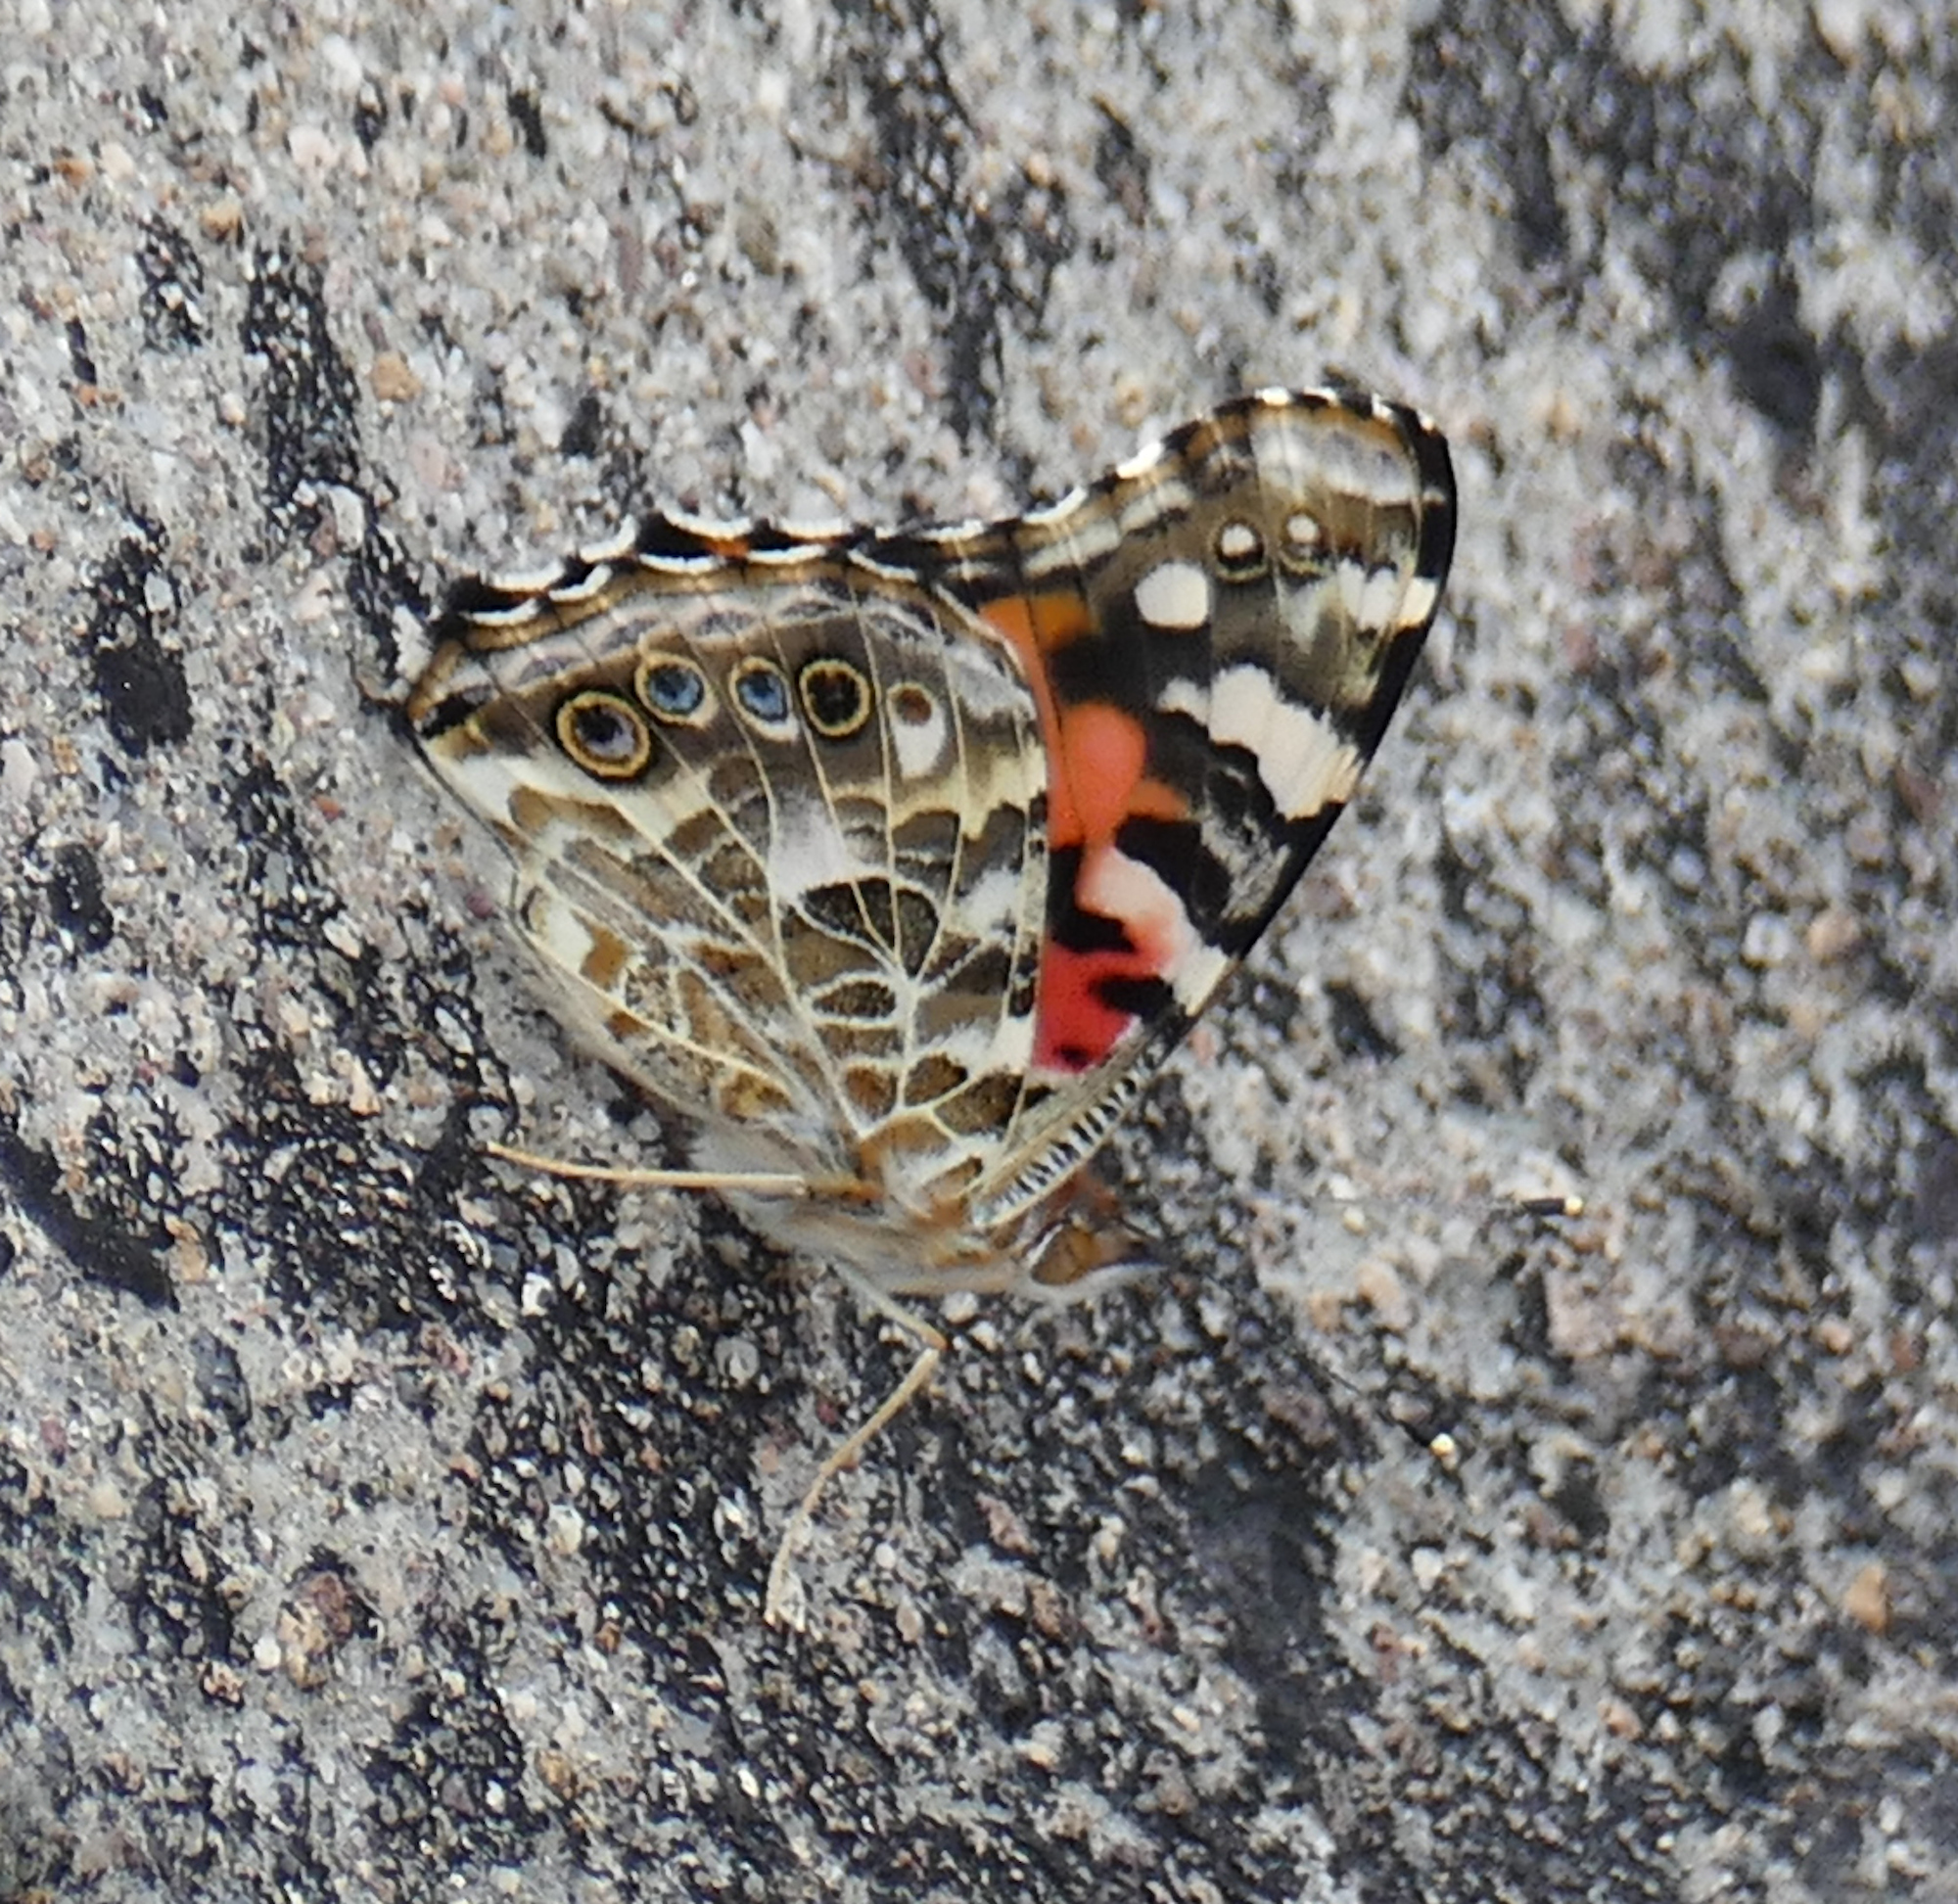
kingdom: Animalia
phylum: Arthropoda
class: Insecta
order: Lepidoptera
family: Nymphalidae
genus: Vanessa
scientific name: Vanessa cardui
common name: Painted lady
